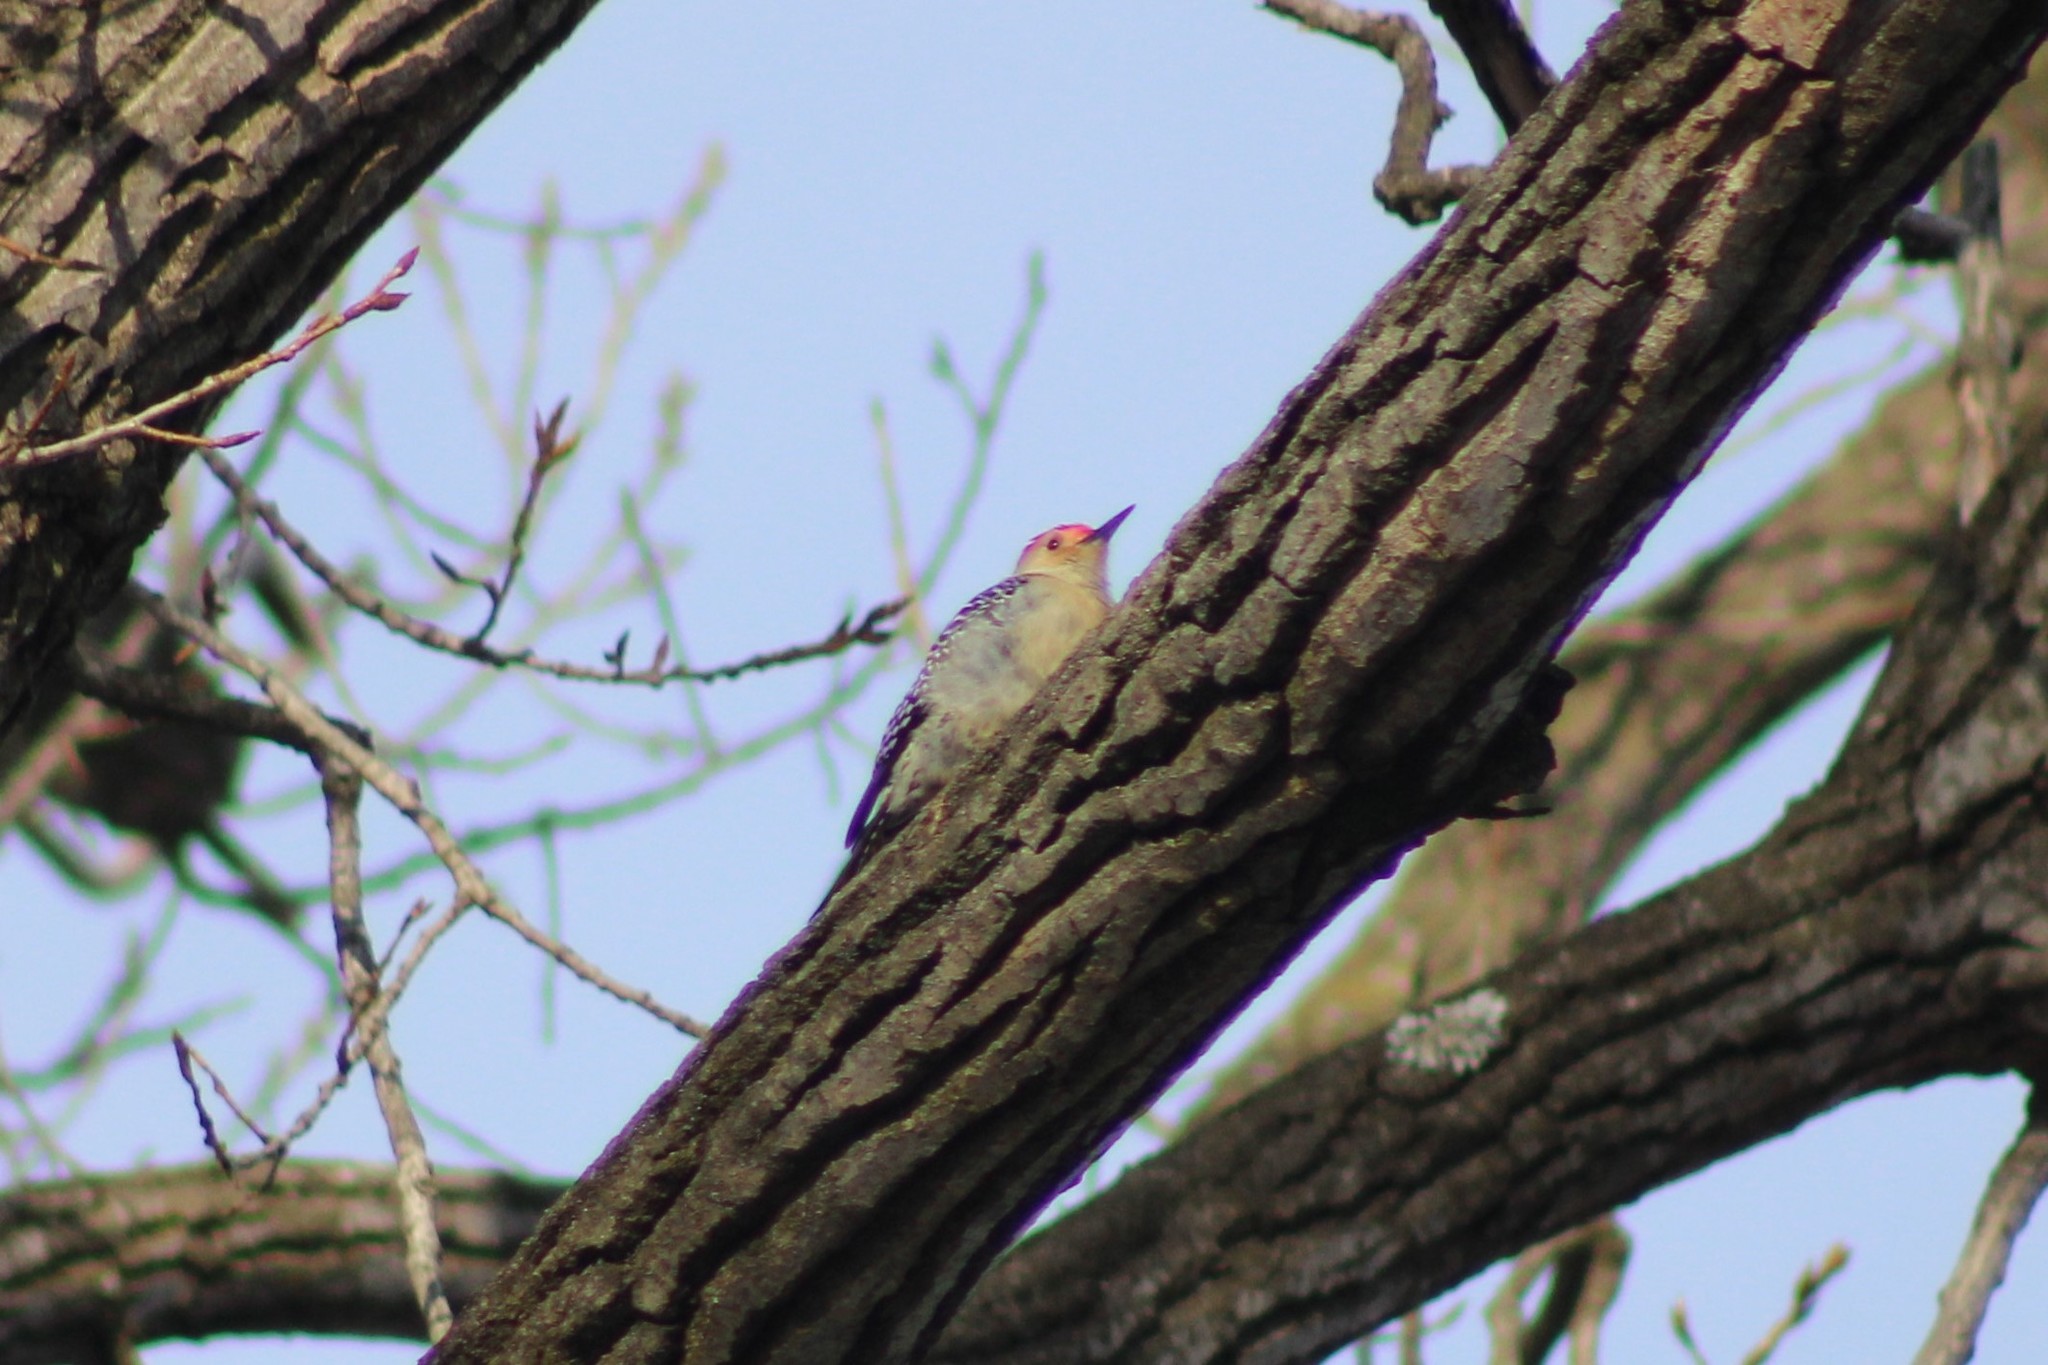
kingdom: Animalia
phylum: Chordata
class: Aves
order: Piciformes
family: Picidae
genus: Melanerpes
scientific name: Melanerpes carolinus
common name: Red-bellied woodpecker
